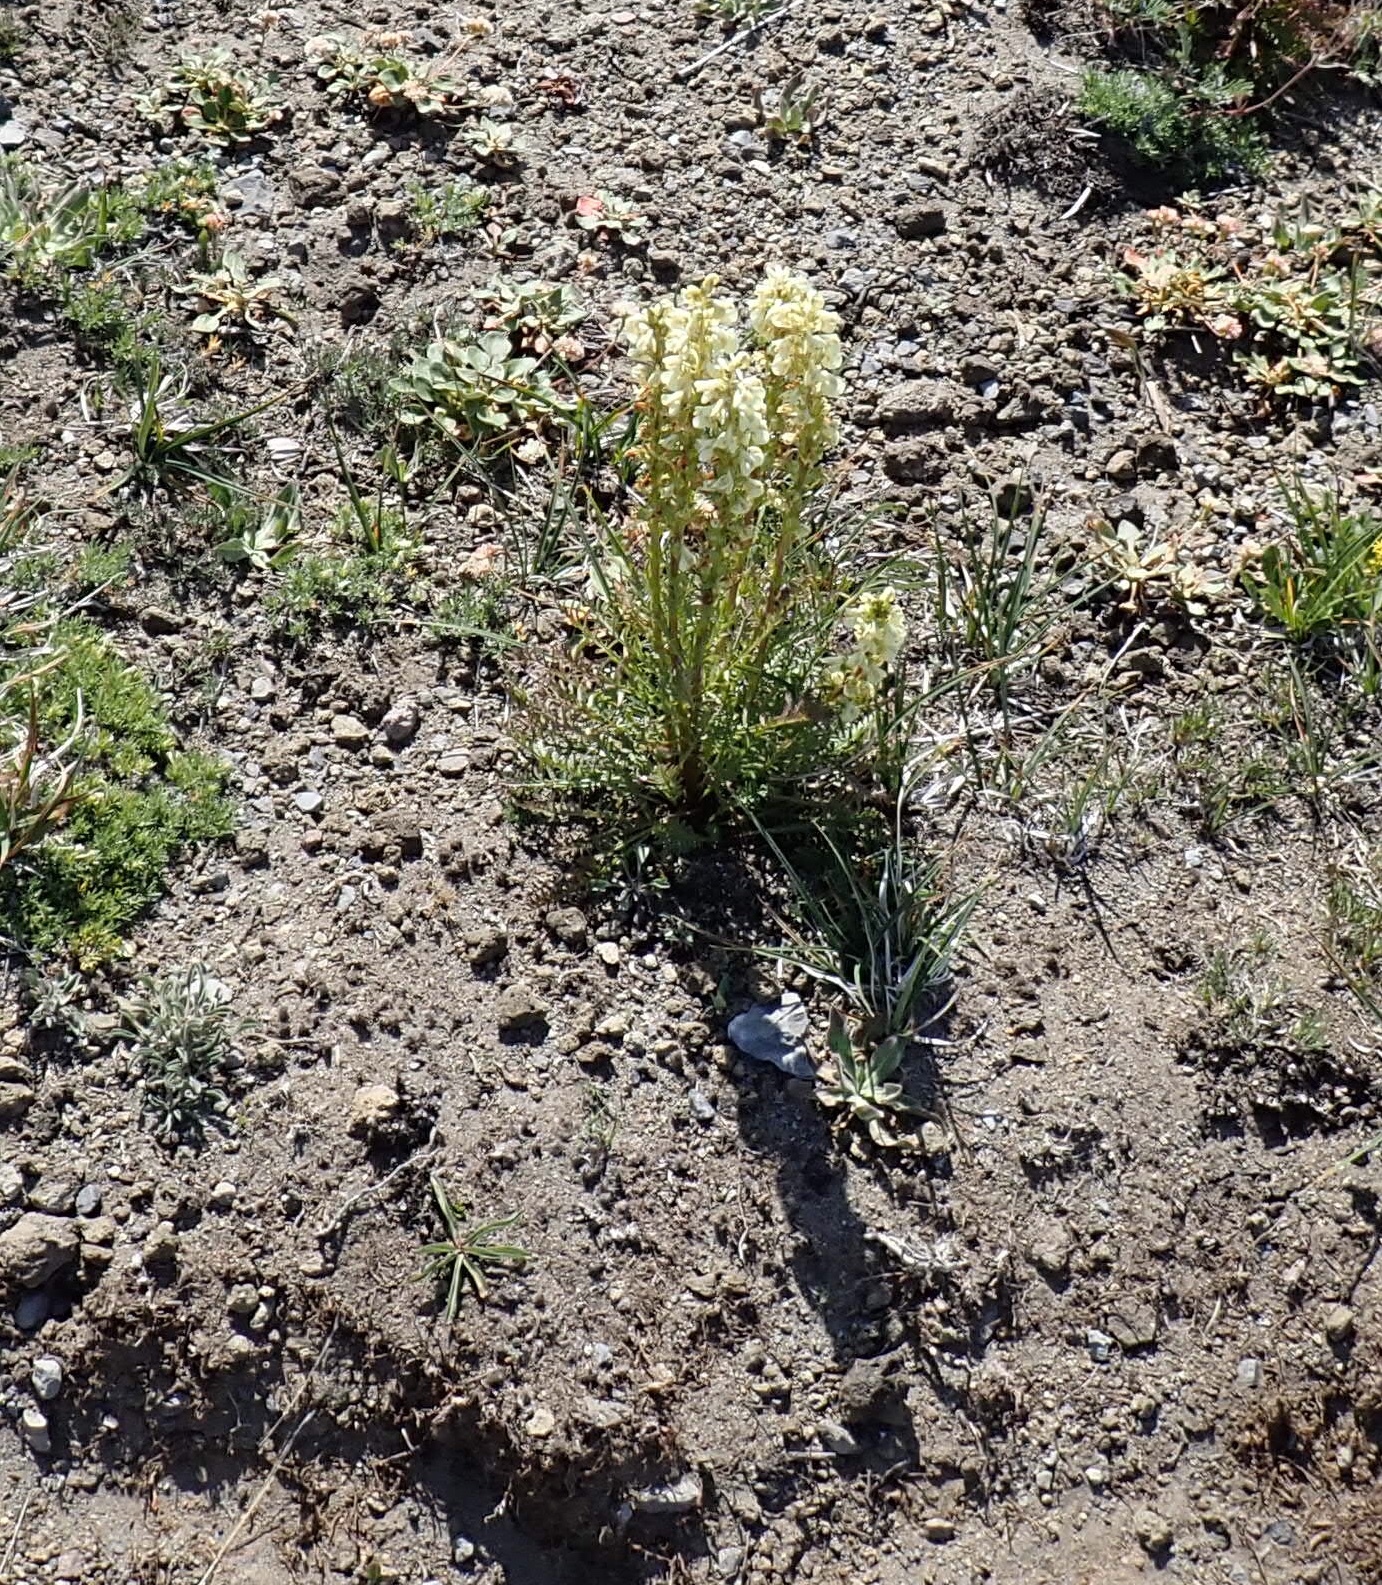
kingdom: Plantae
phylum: Tracheophyta
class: Magnoliopsida
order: Lamiales
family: Orobanchaceae
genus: Pedicularis
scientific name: Pedicularis contorta
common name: Coiled lousewort
